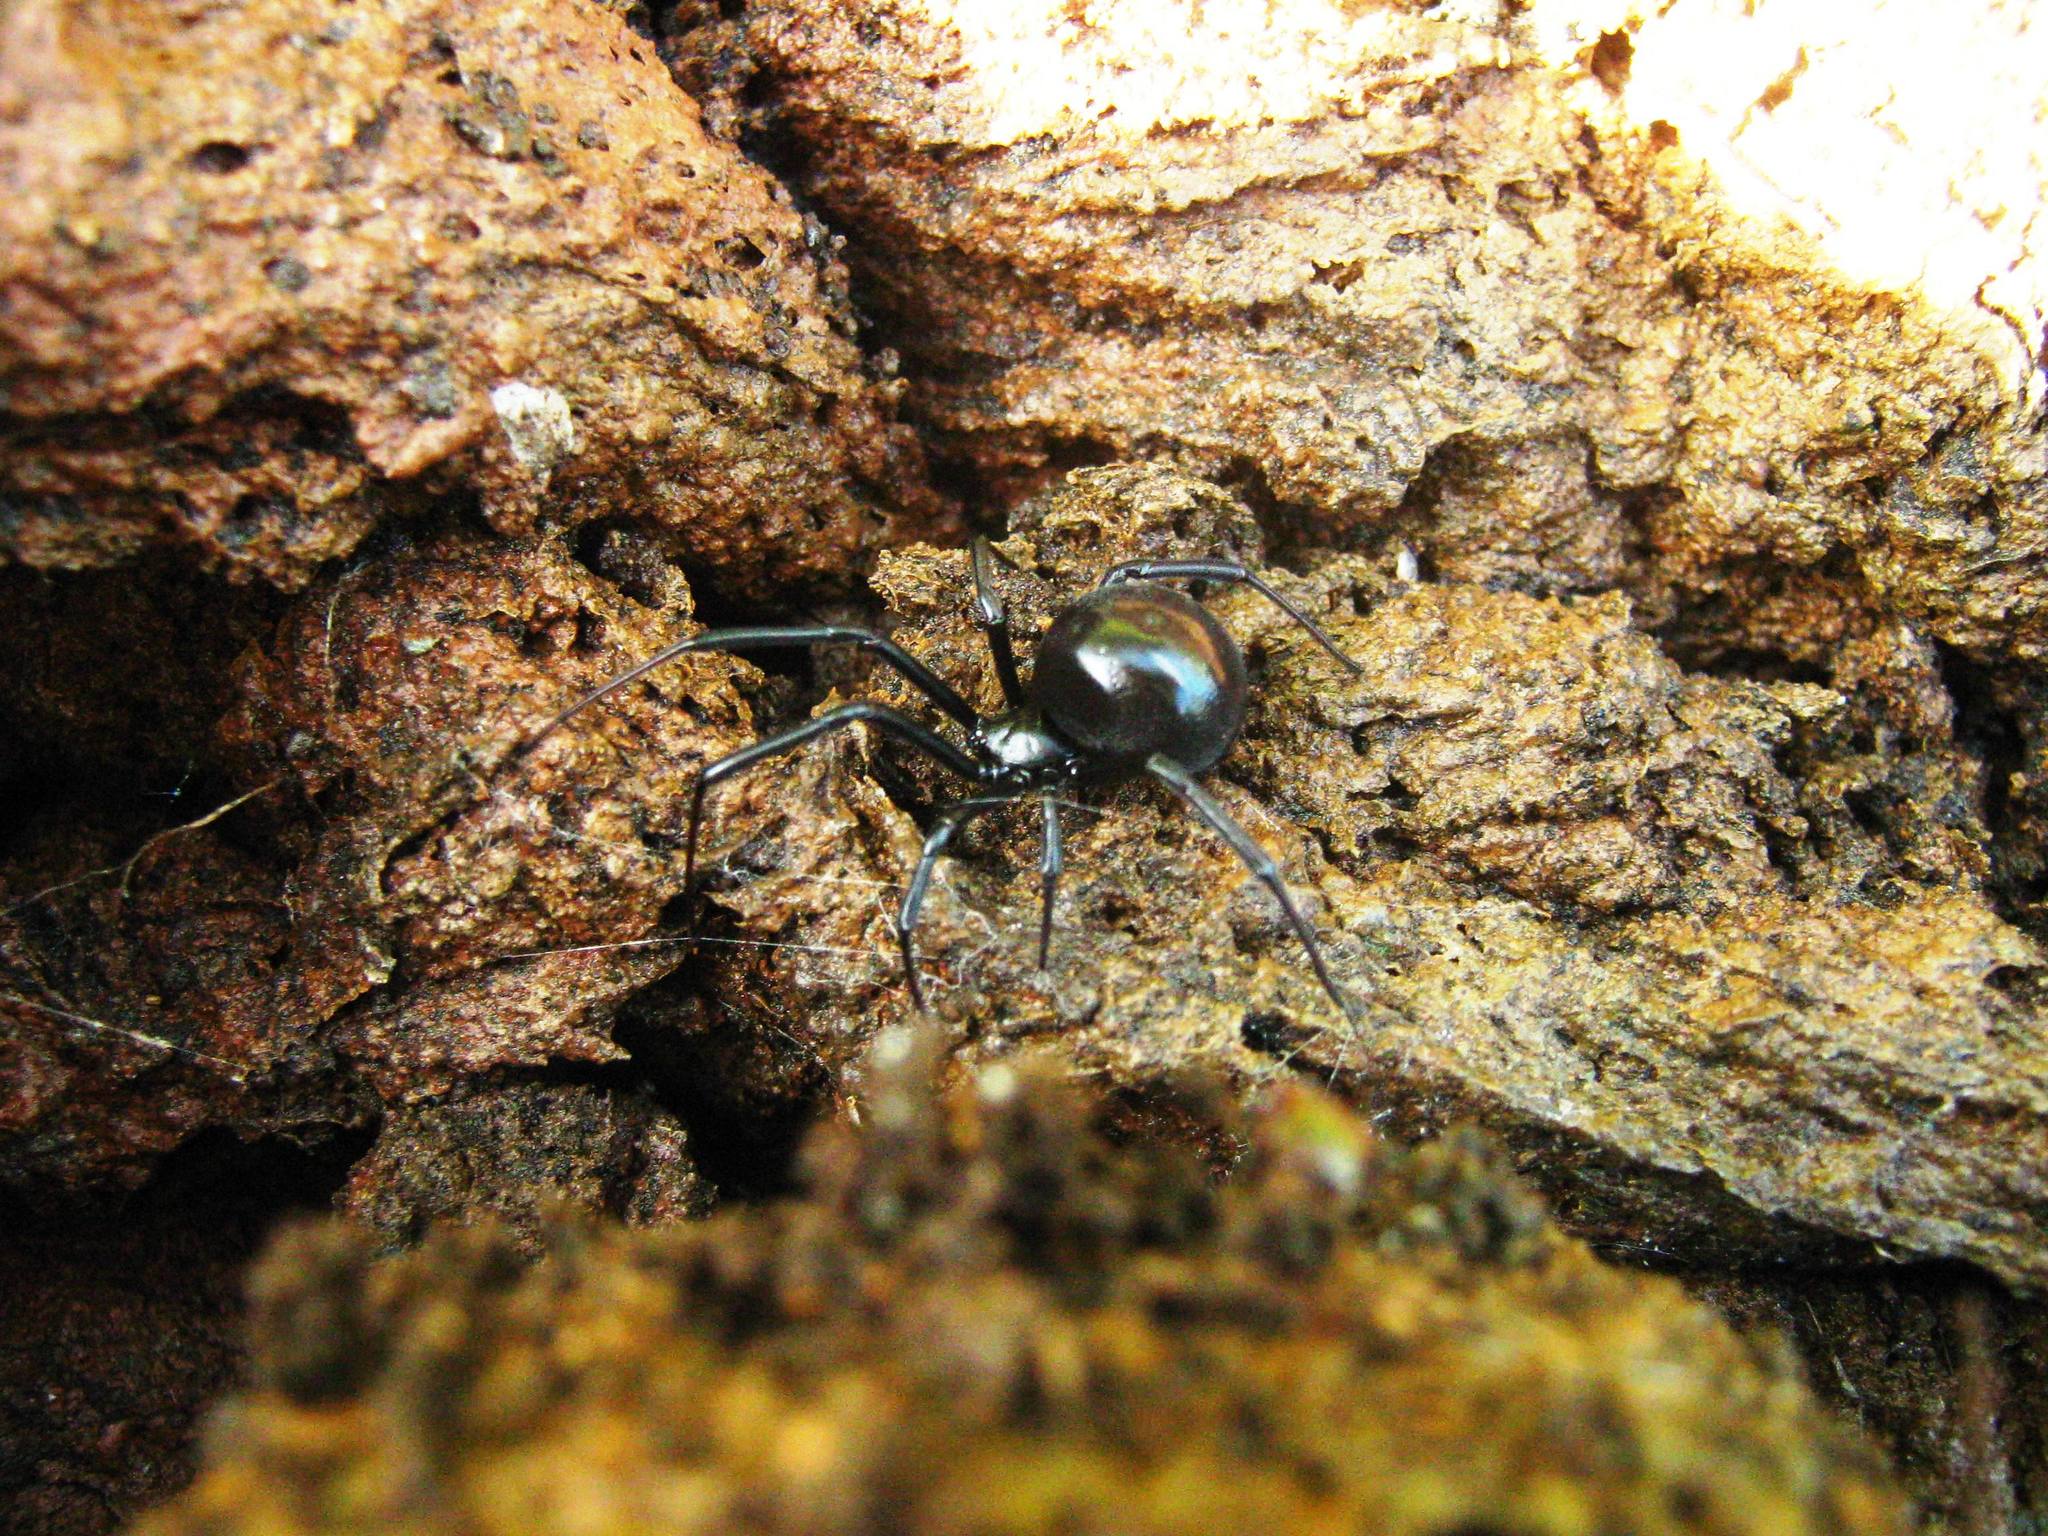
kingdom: Animalia
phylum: Arthropoda
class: Arachnida
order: Araneae
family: Theridiidae
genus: Latrodectus
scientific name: Latrodectus mactans
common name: Cobweb spiders
